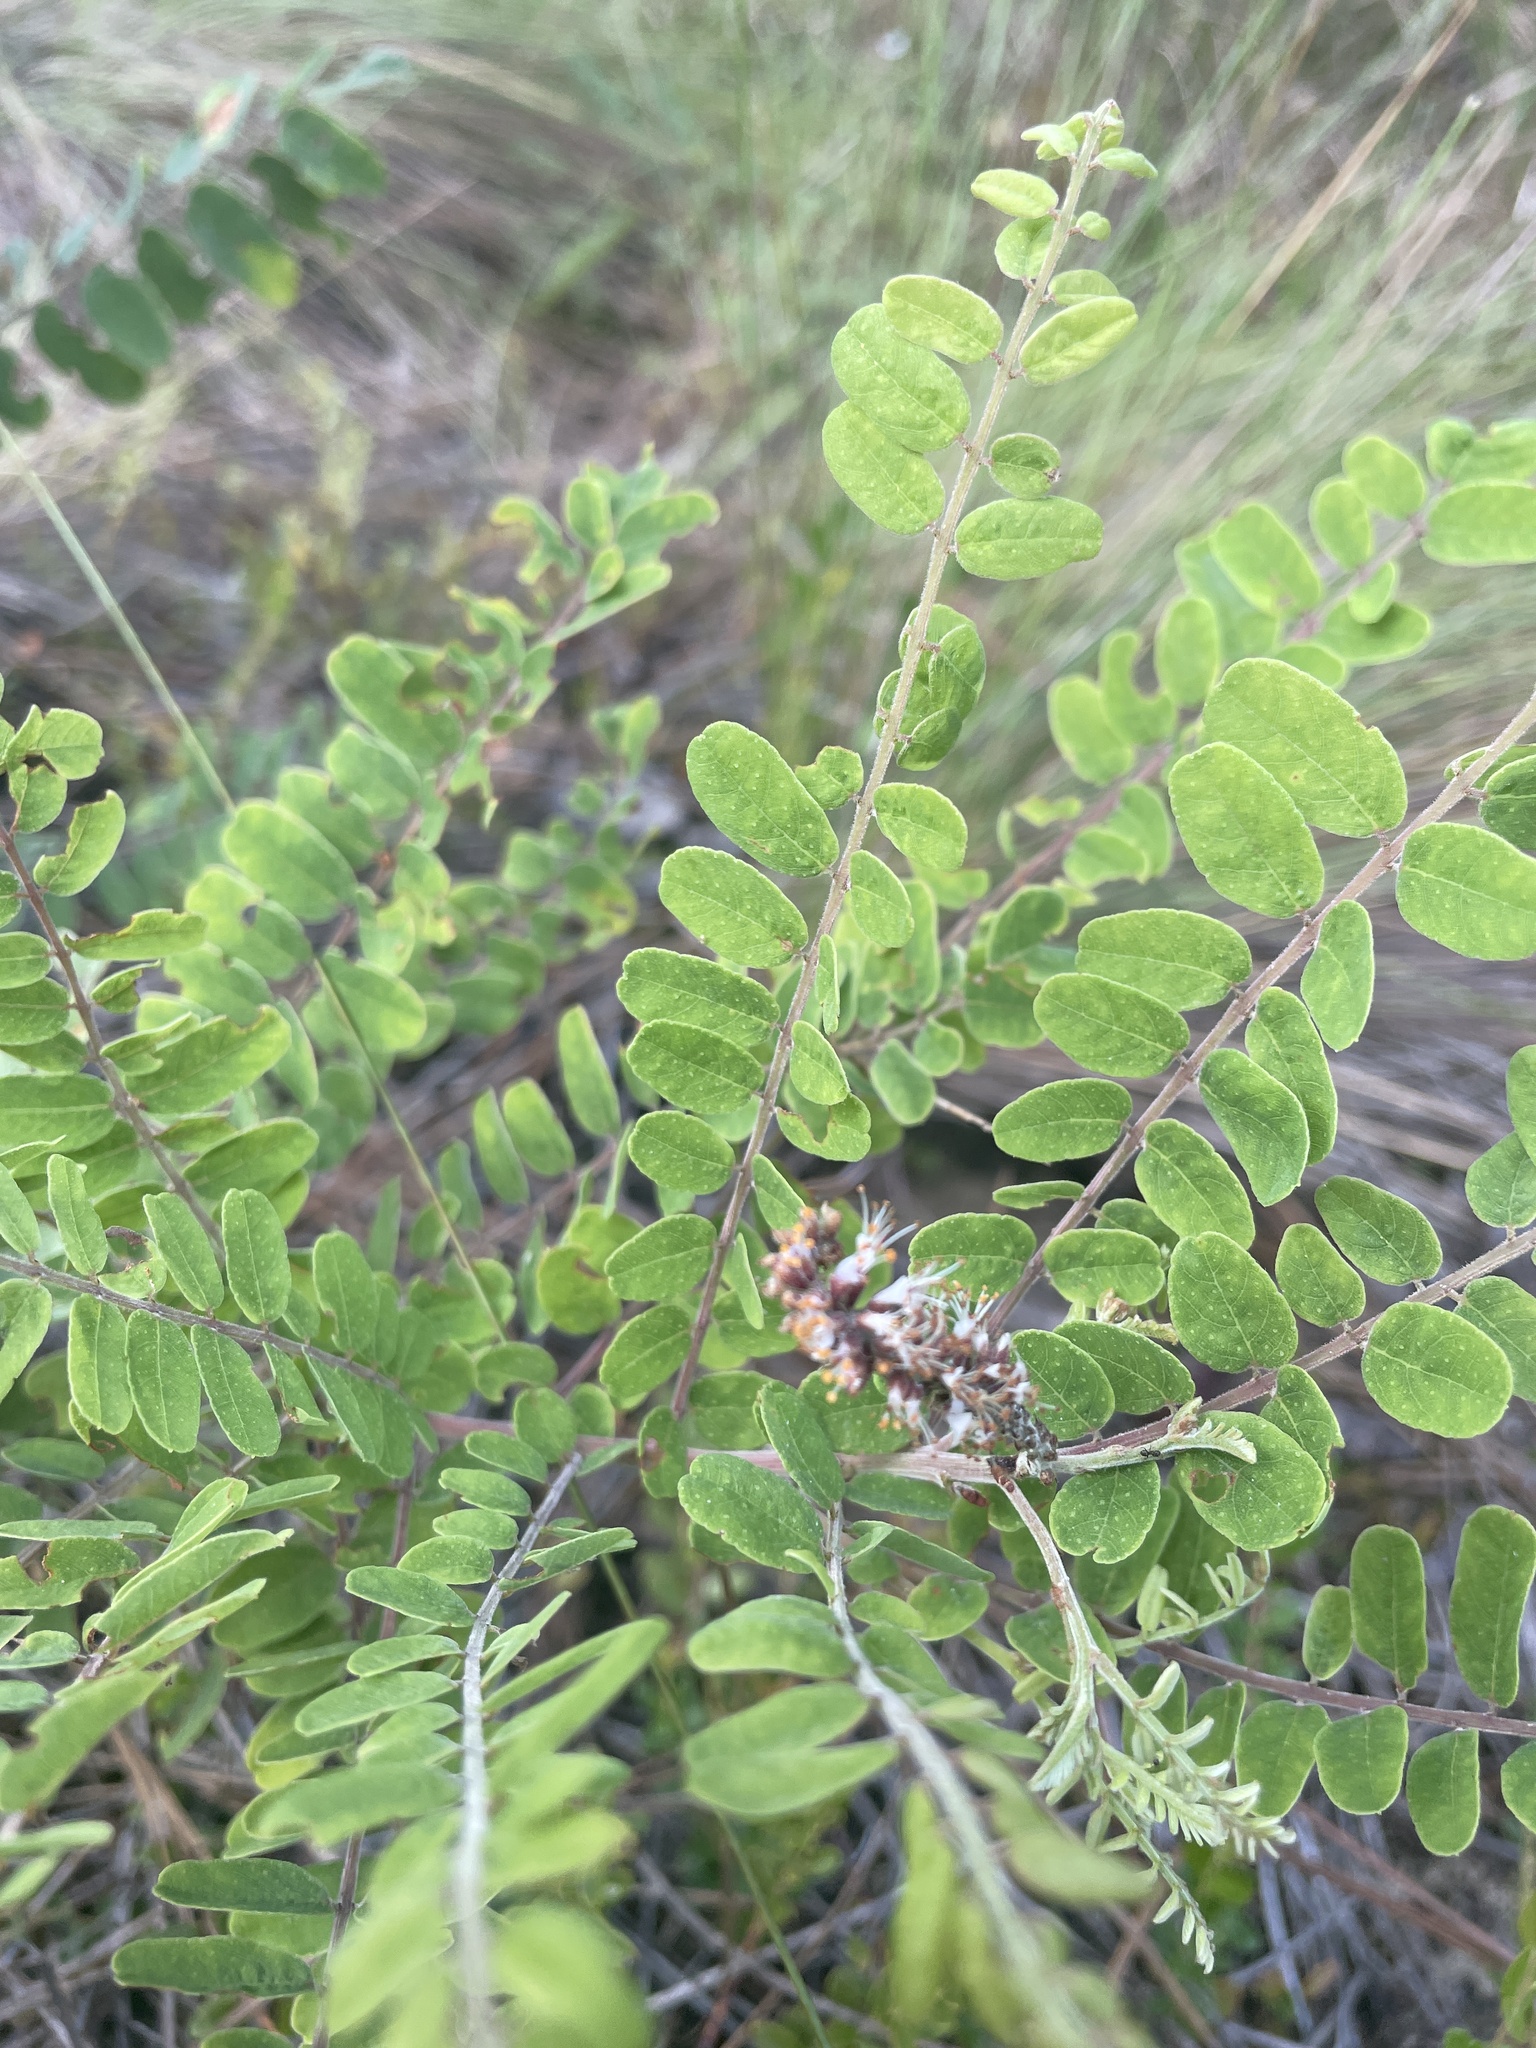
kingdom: Plantae
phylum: Tracheophyta
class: Magnoliopsida
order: Fabales
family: Fabaceae
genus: Amorpha
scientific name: Amorpha herbacea
